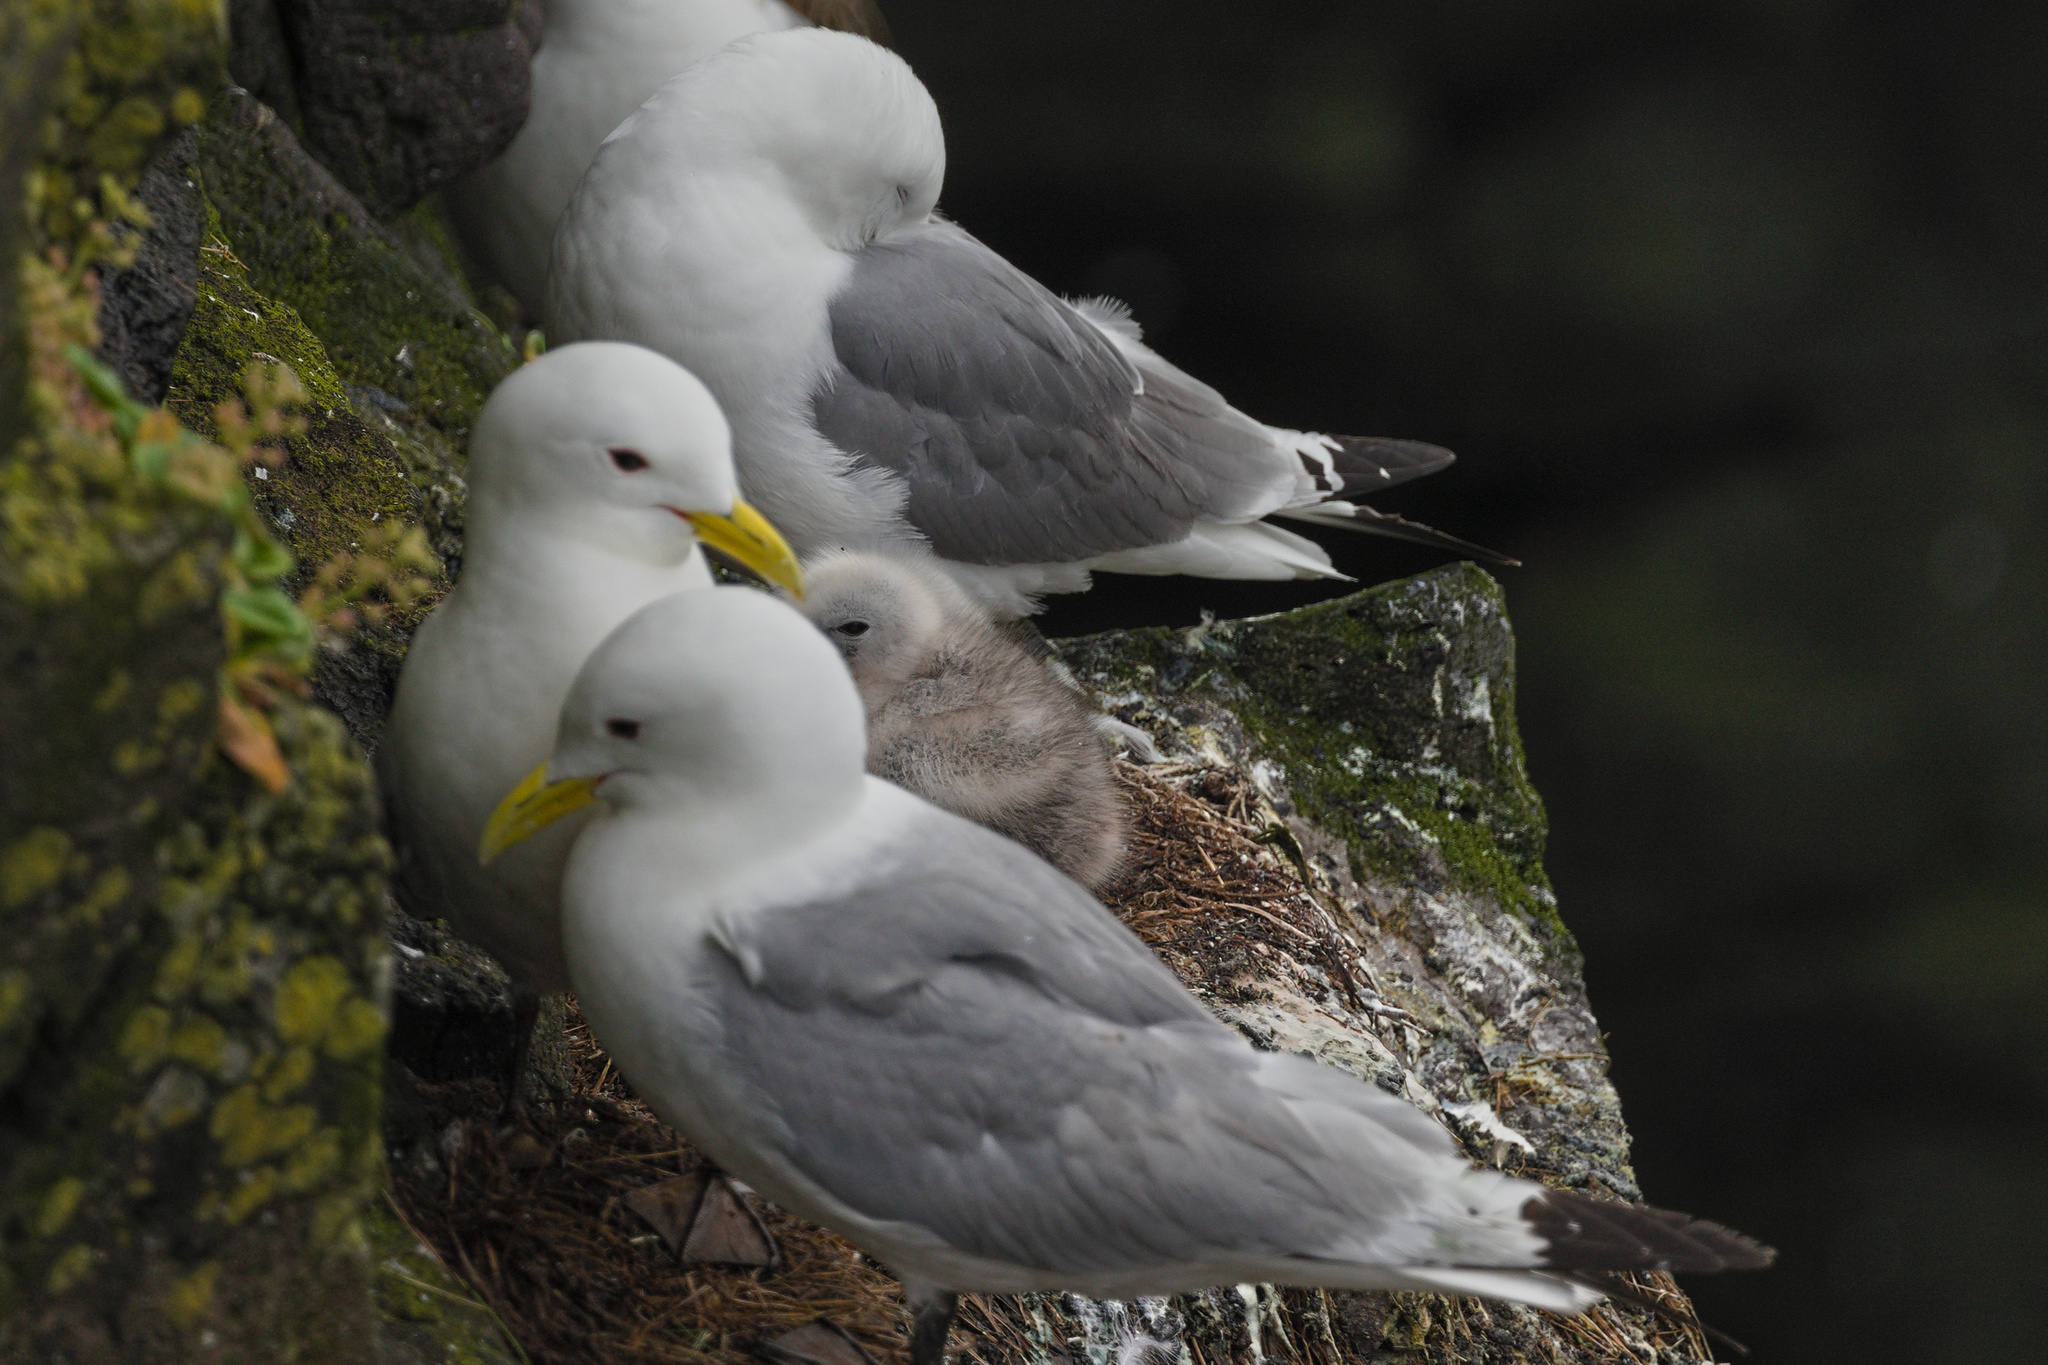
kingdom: Animalia
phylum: Chordata
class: Aves
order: Charadriiformes
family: Laridae
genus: Rissa
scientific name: Rissa tridactyla
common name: Black-legged kittiwake
